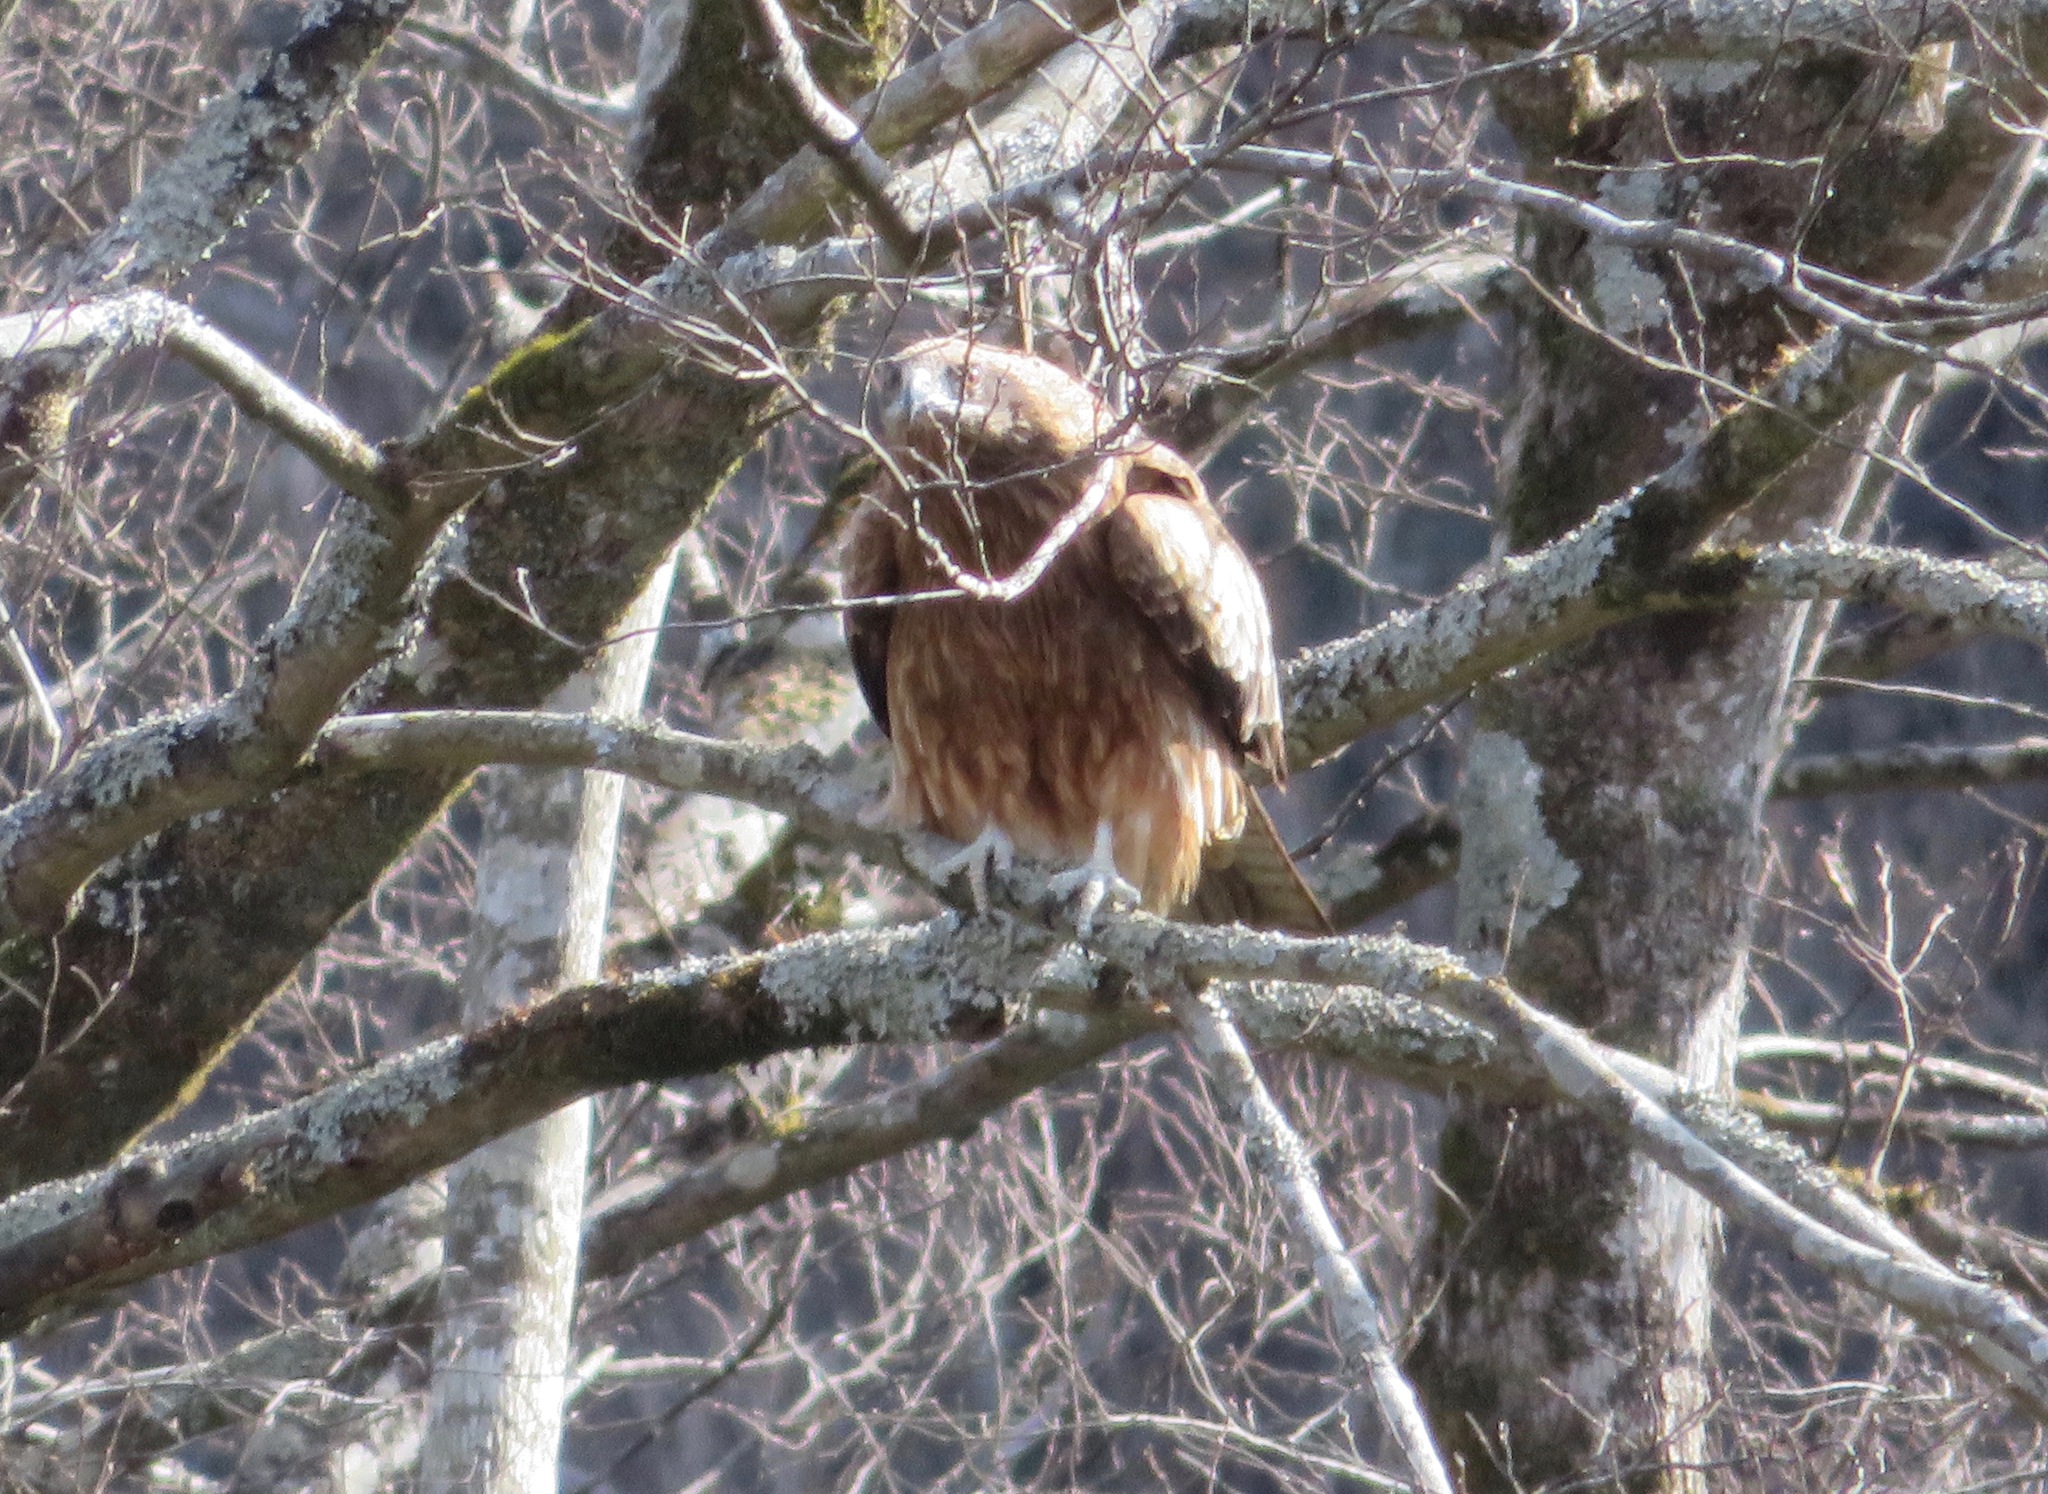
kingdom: Animalia
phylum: Chordata
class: Aves
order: Accipitriformes
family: Accipitridae
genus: Milvus
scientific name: Milvus migrans
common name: Black kite
